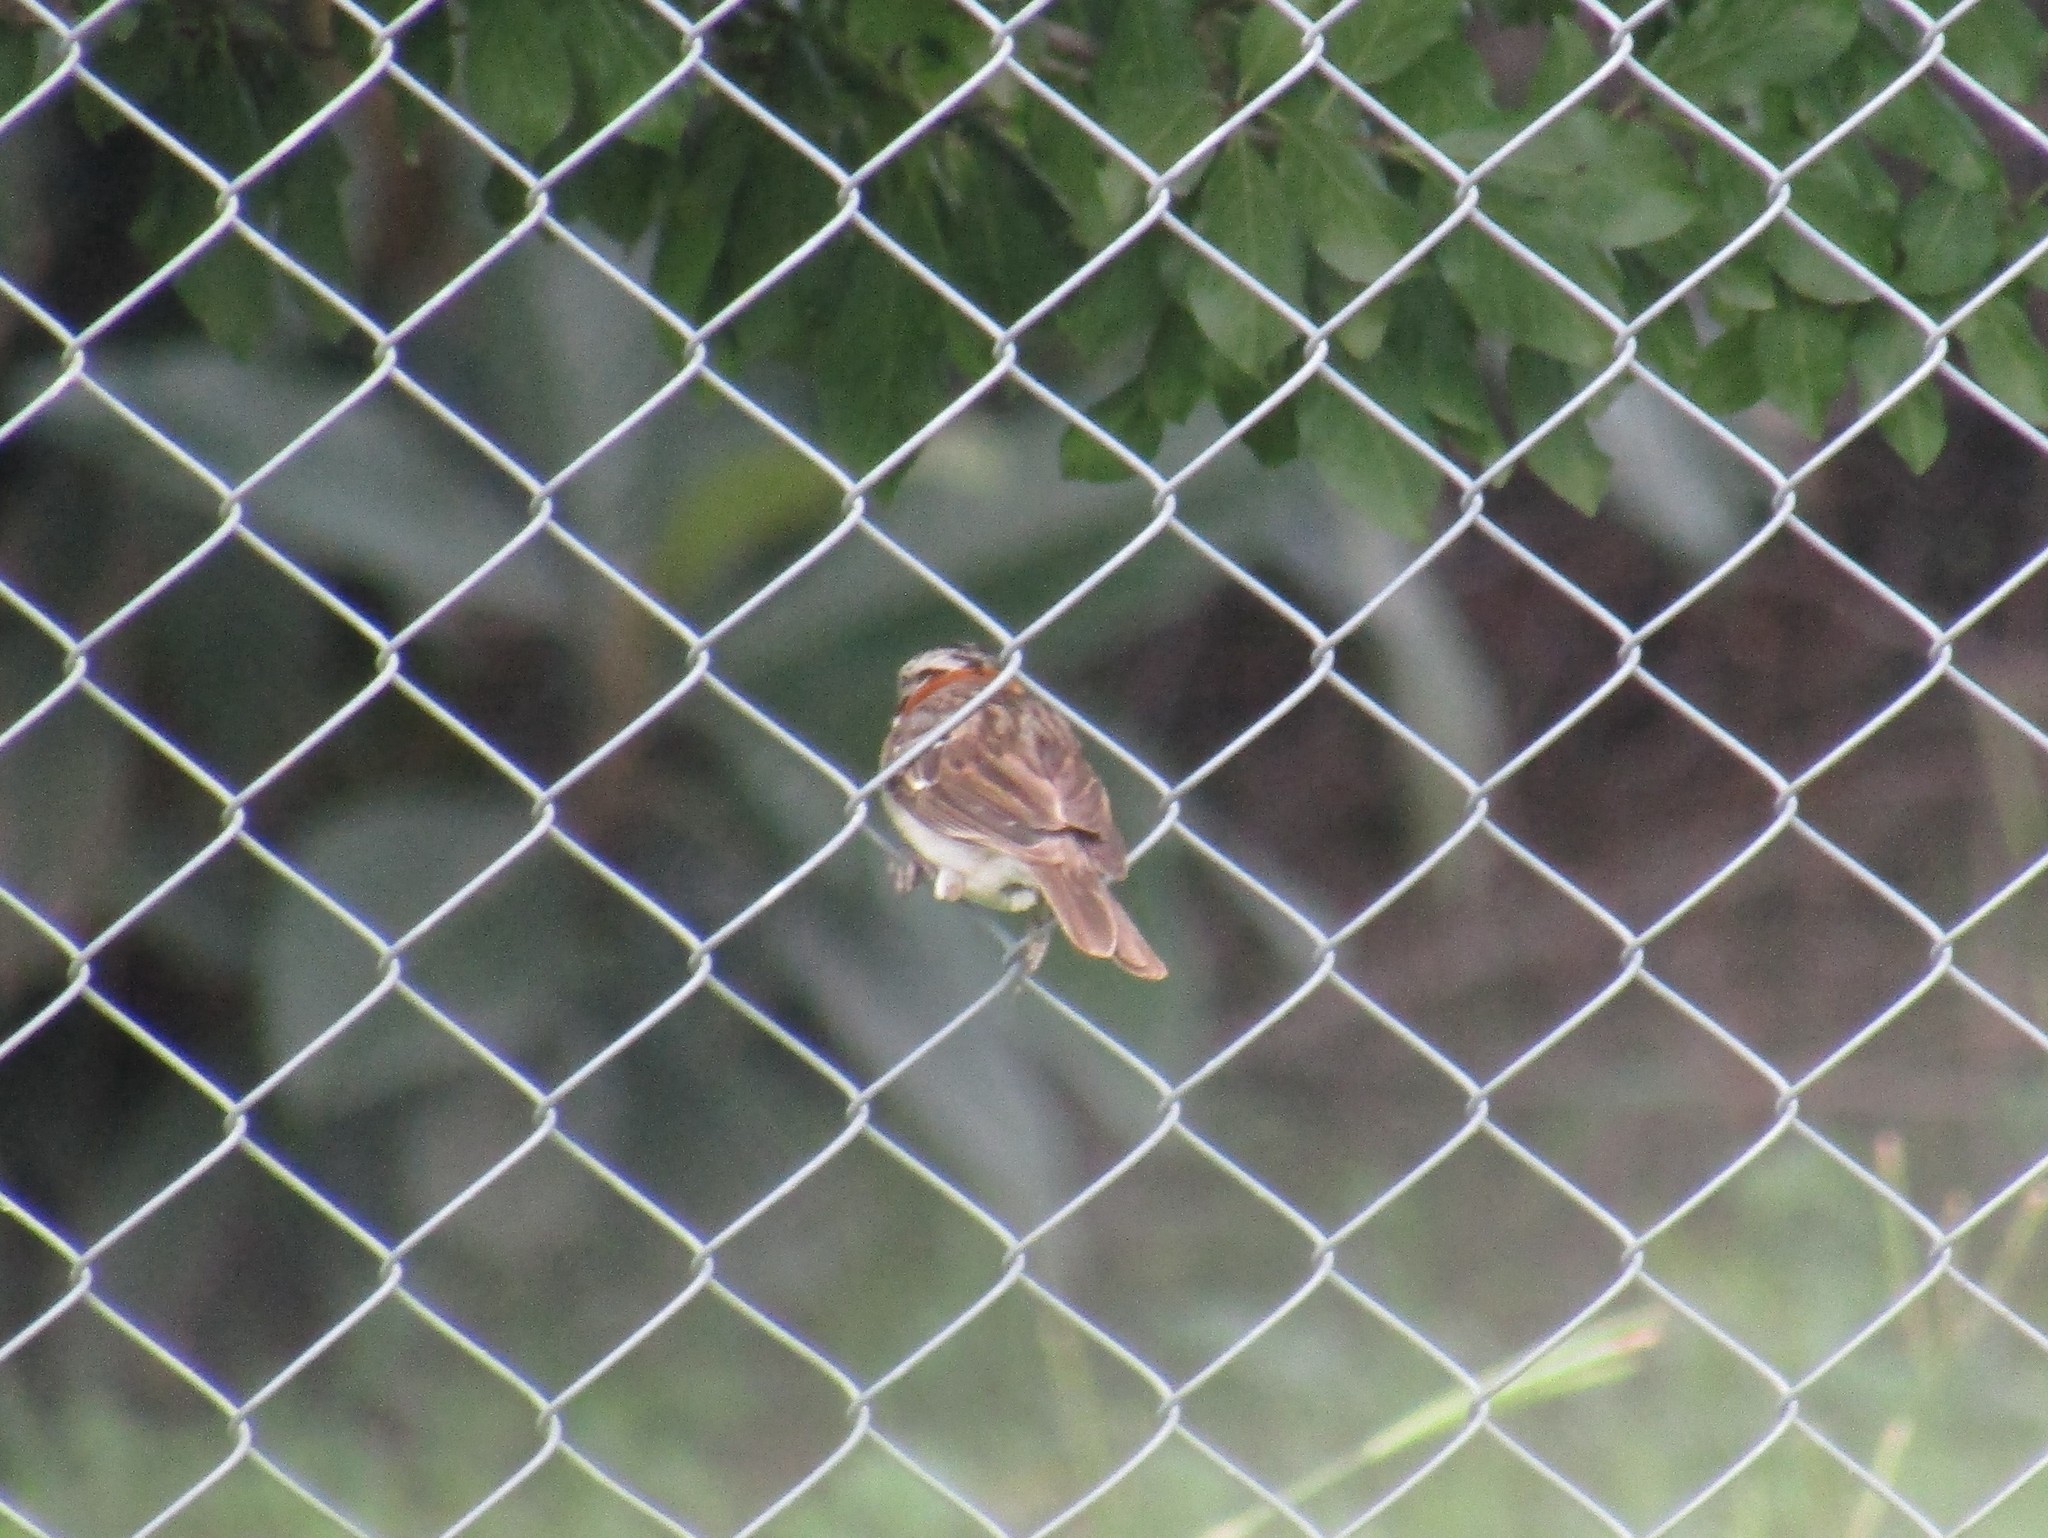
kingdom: Animalia
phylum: Chordata
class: Aves
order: Passeriformes
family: Passerellidae
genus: Zonotrichia
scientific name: Zonotrichia capensis
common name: Rufous-collared sparrow
